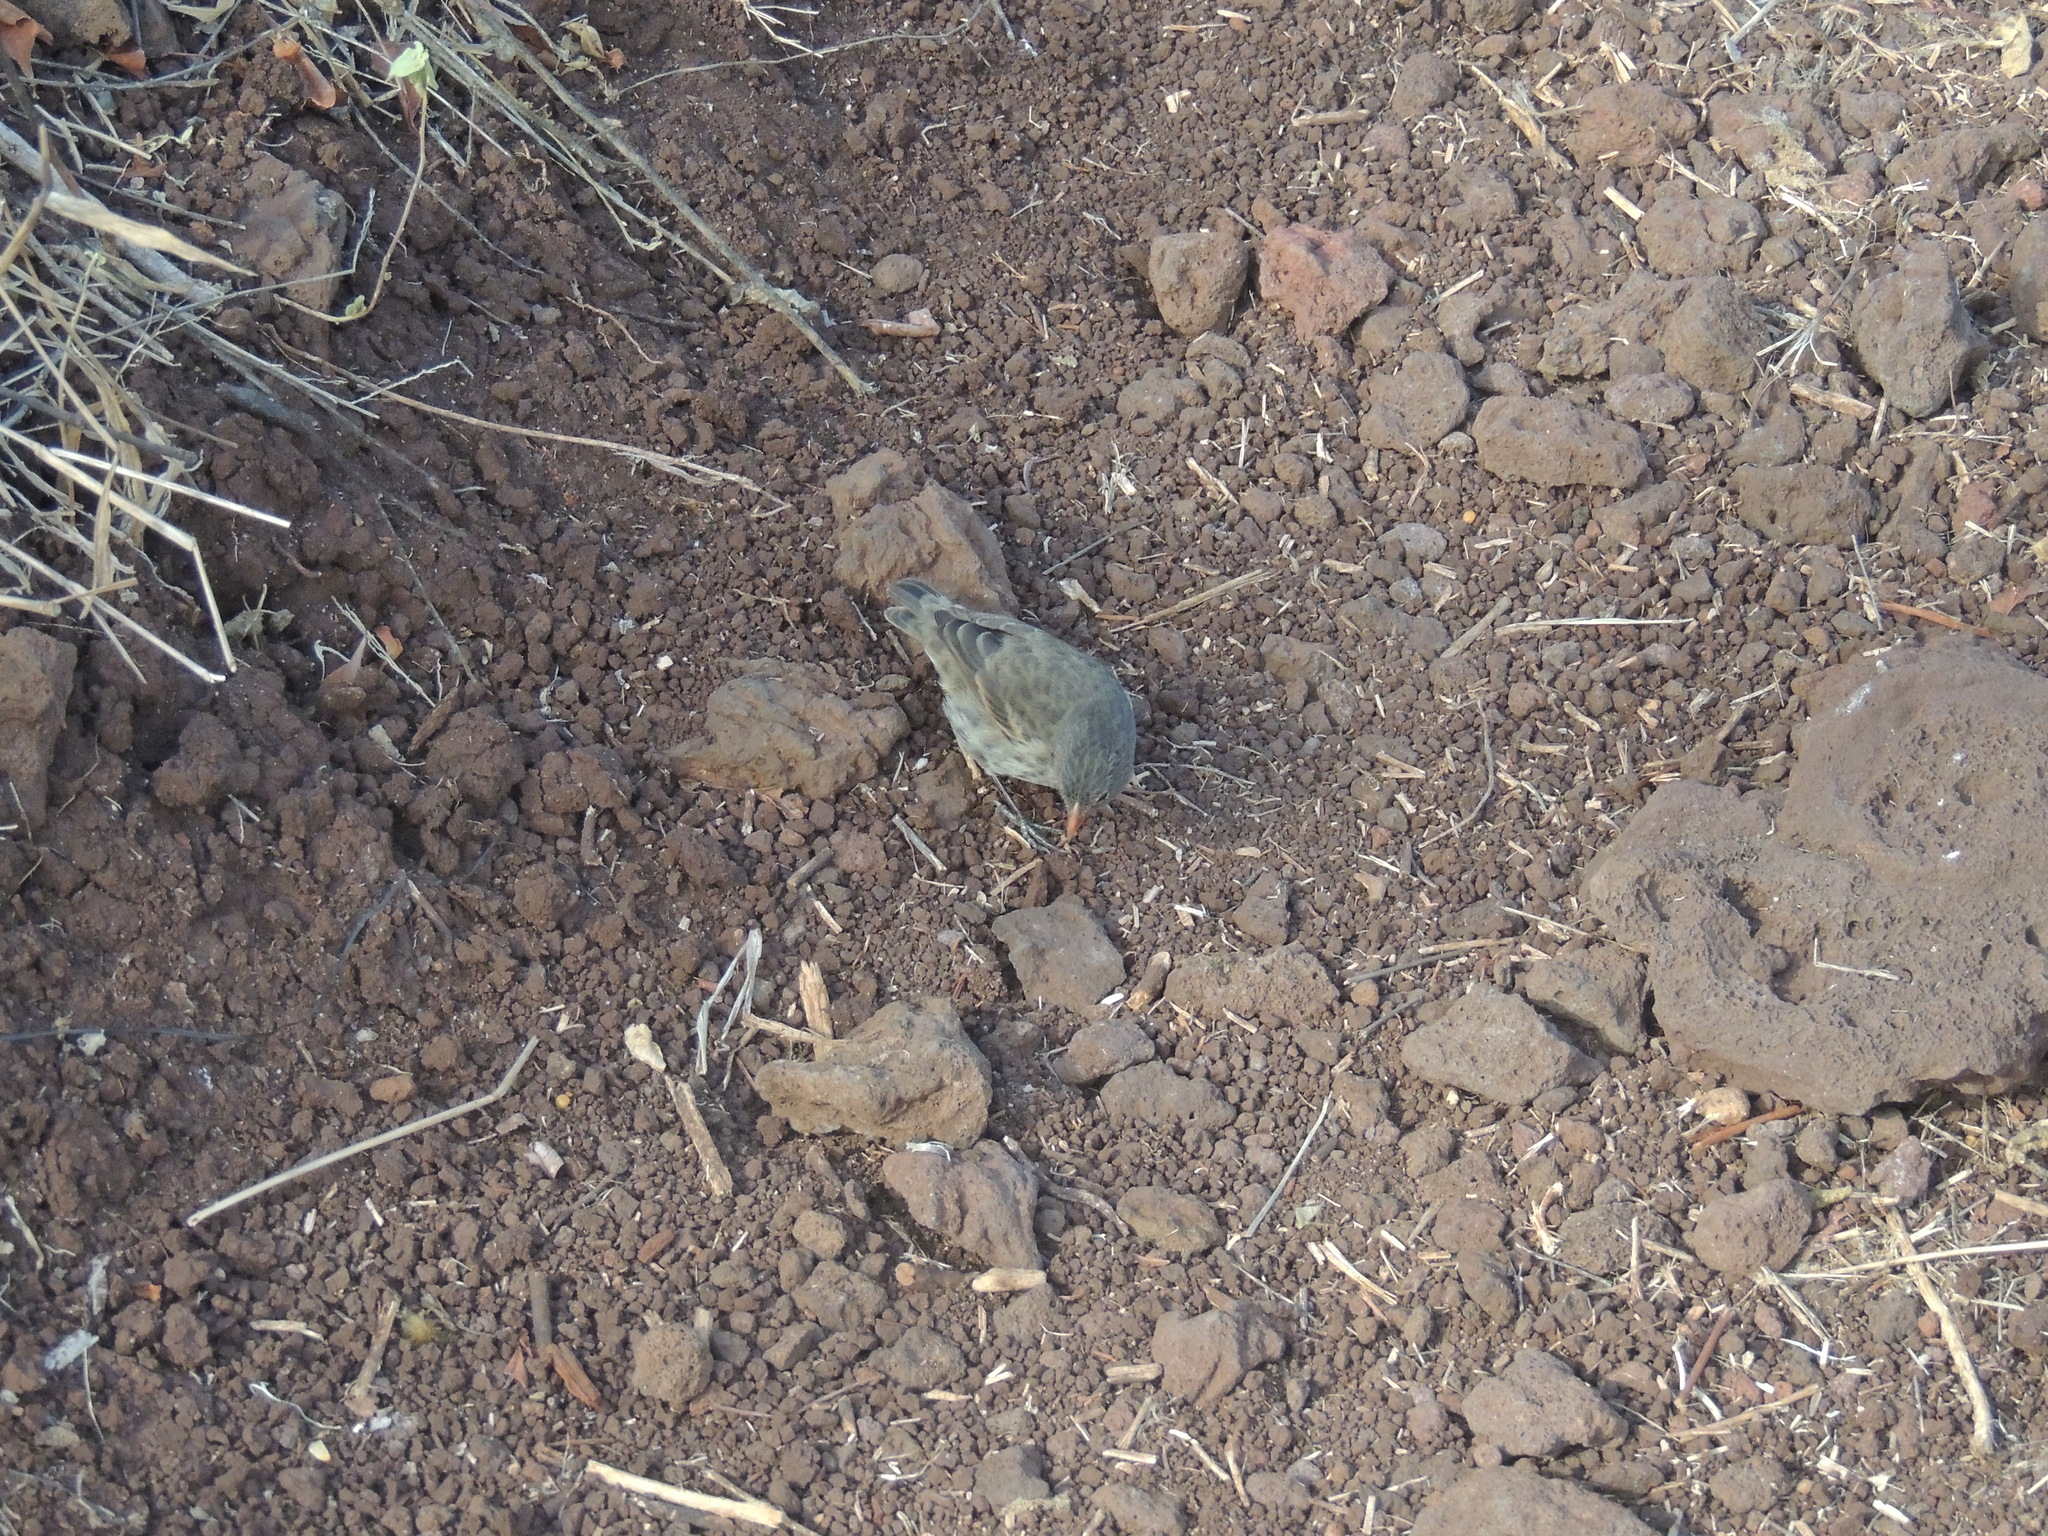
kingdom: Animalia
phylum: Chordata
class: Aves
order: Passeriformes
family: Thraupidae
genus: Geospiza
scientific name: Geospiza fuliginosa
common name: Small ground finch
